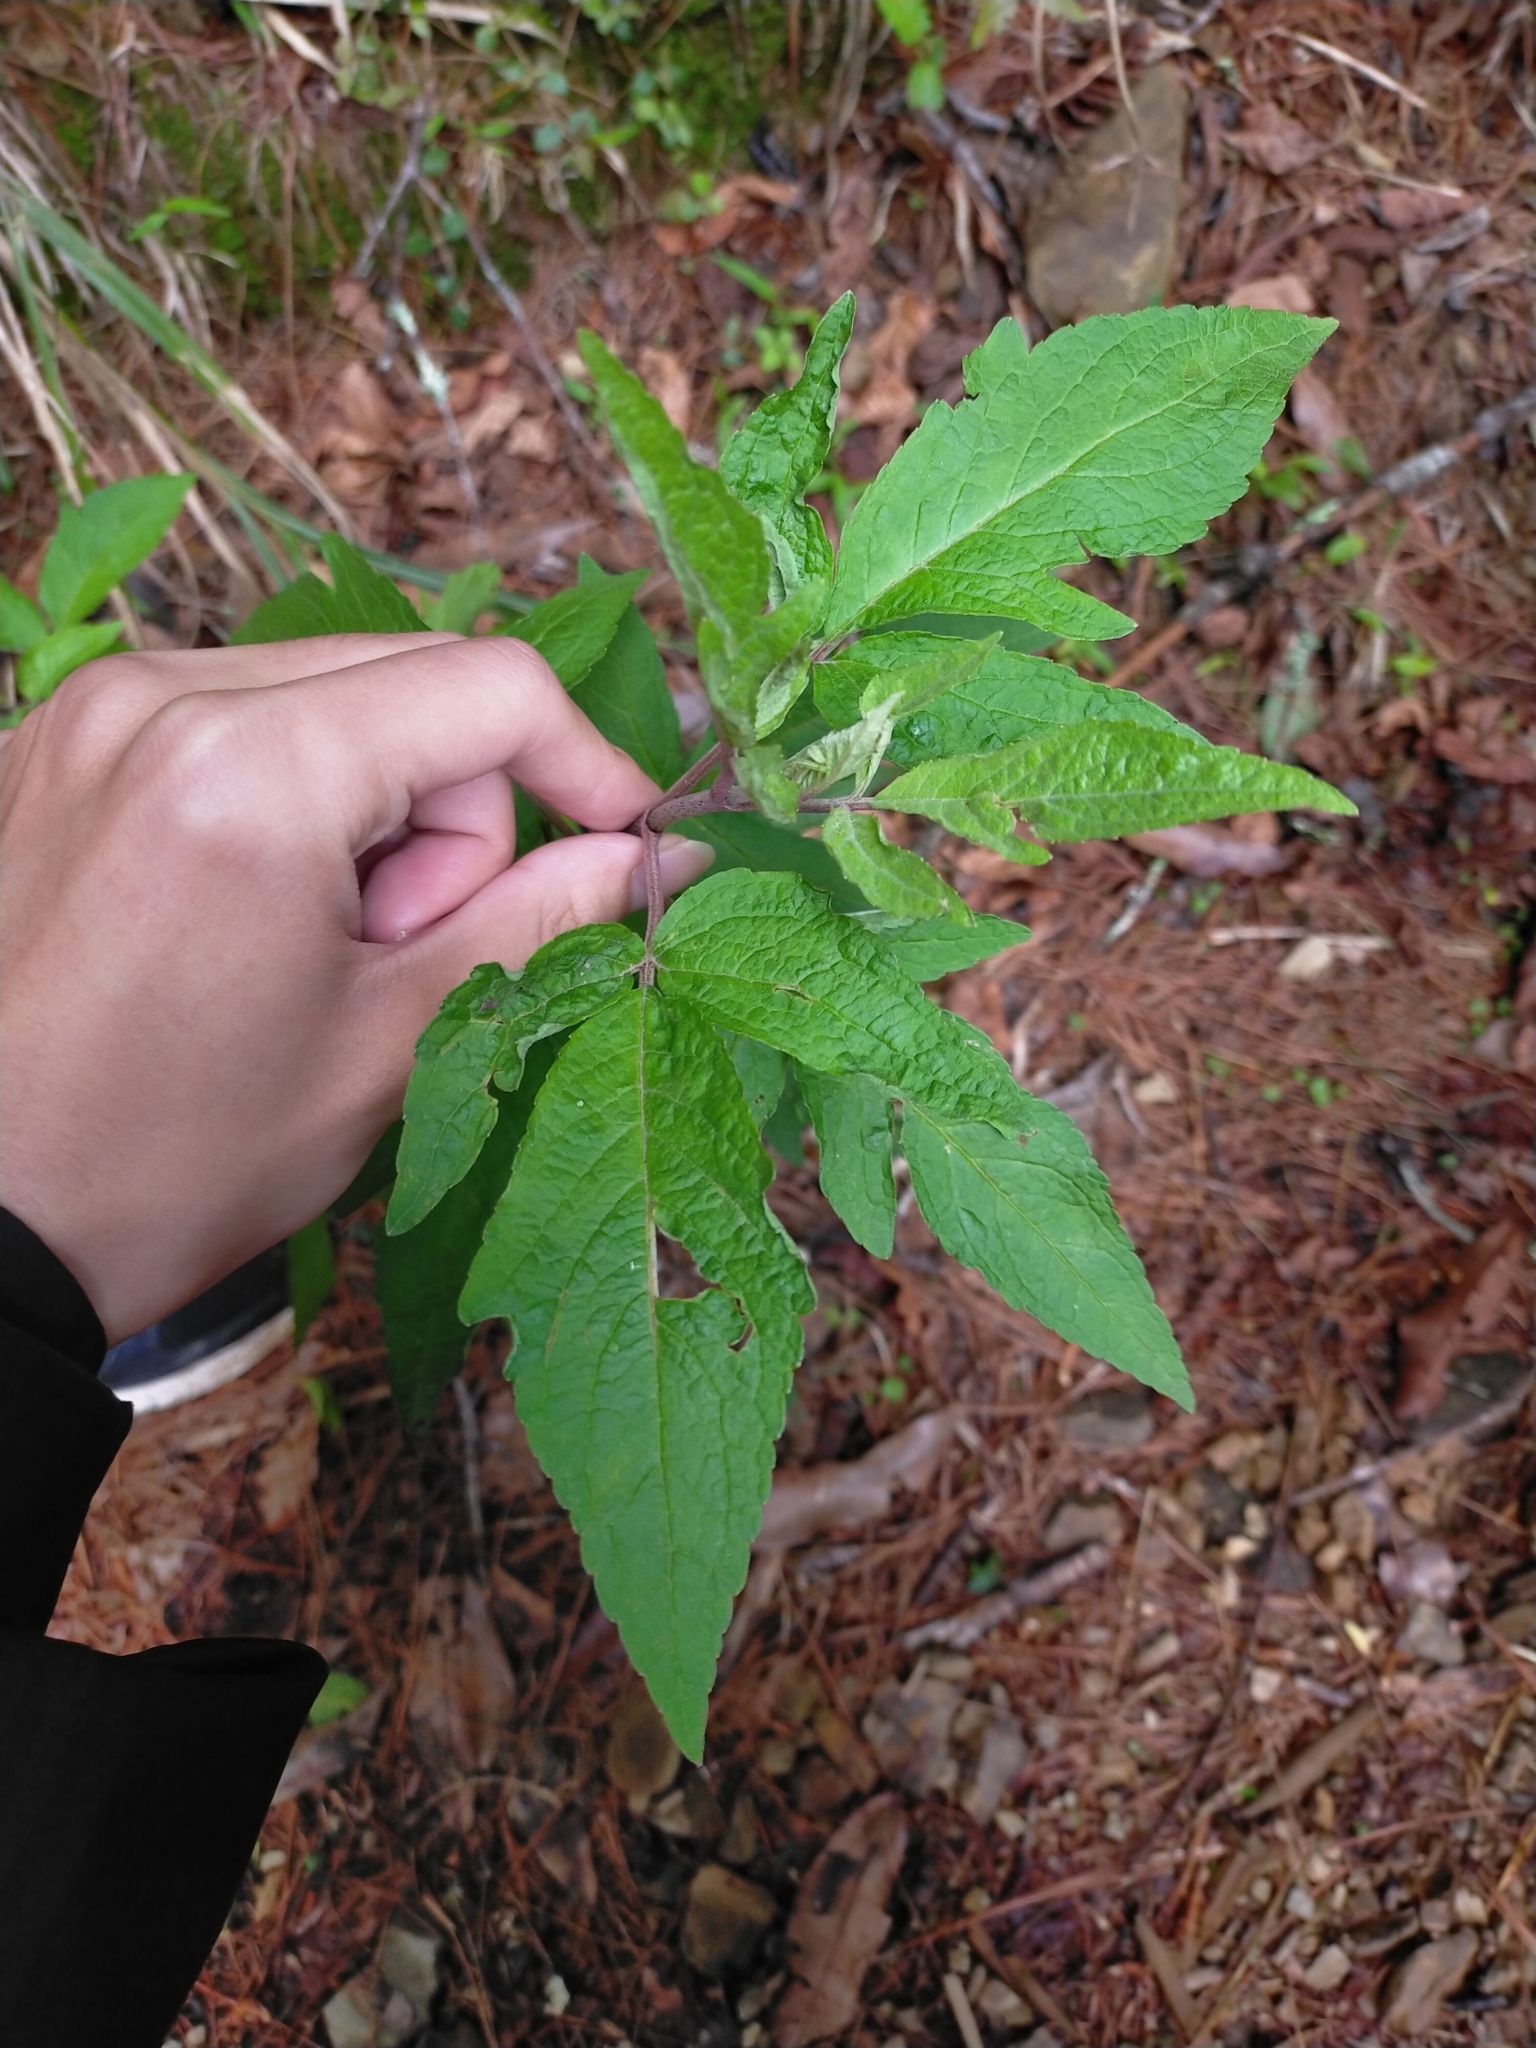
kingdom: Plantae
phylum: Tracheophyta
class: Magnoliopsida
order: Asterales
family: Asteraceae
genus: Eupatorium
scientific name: Eupatorium formosanum
